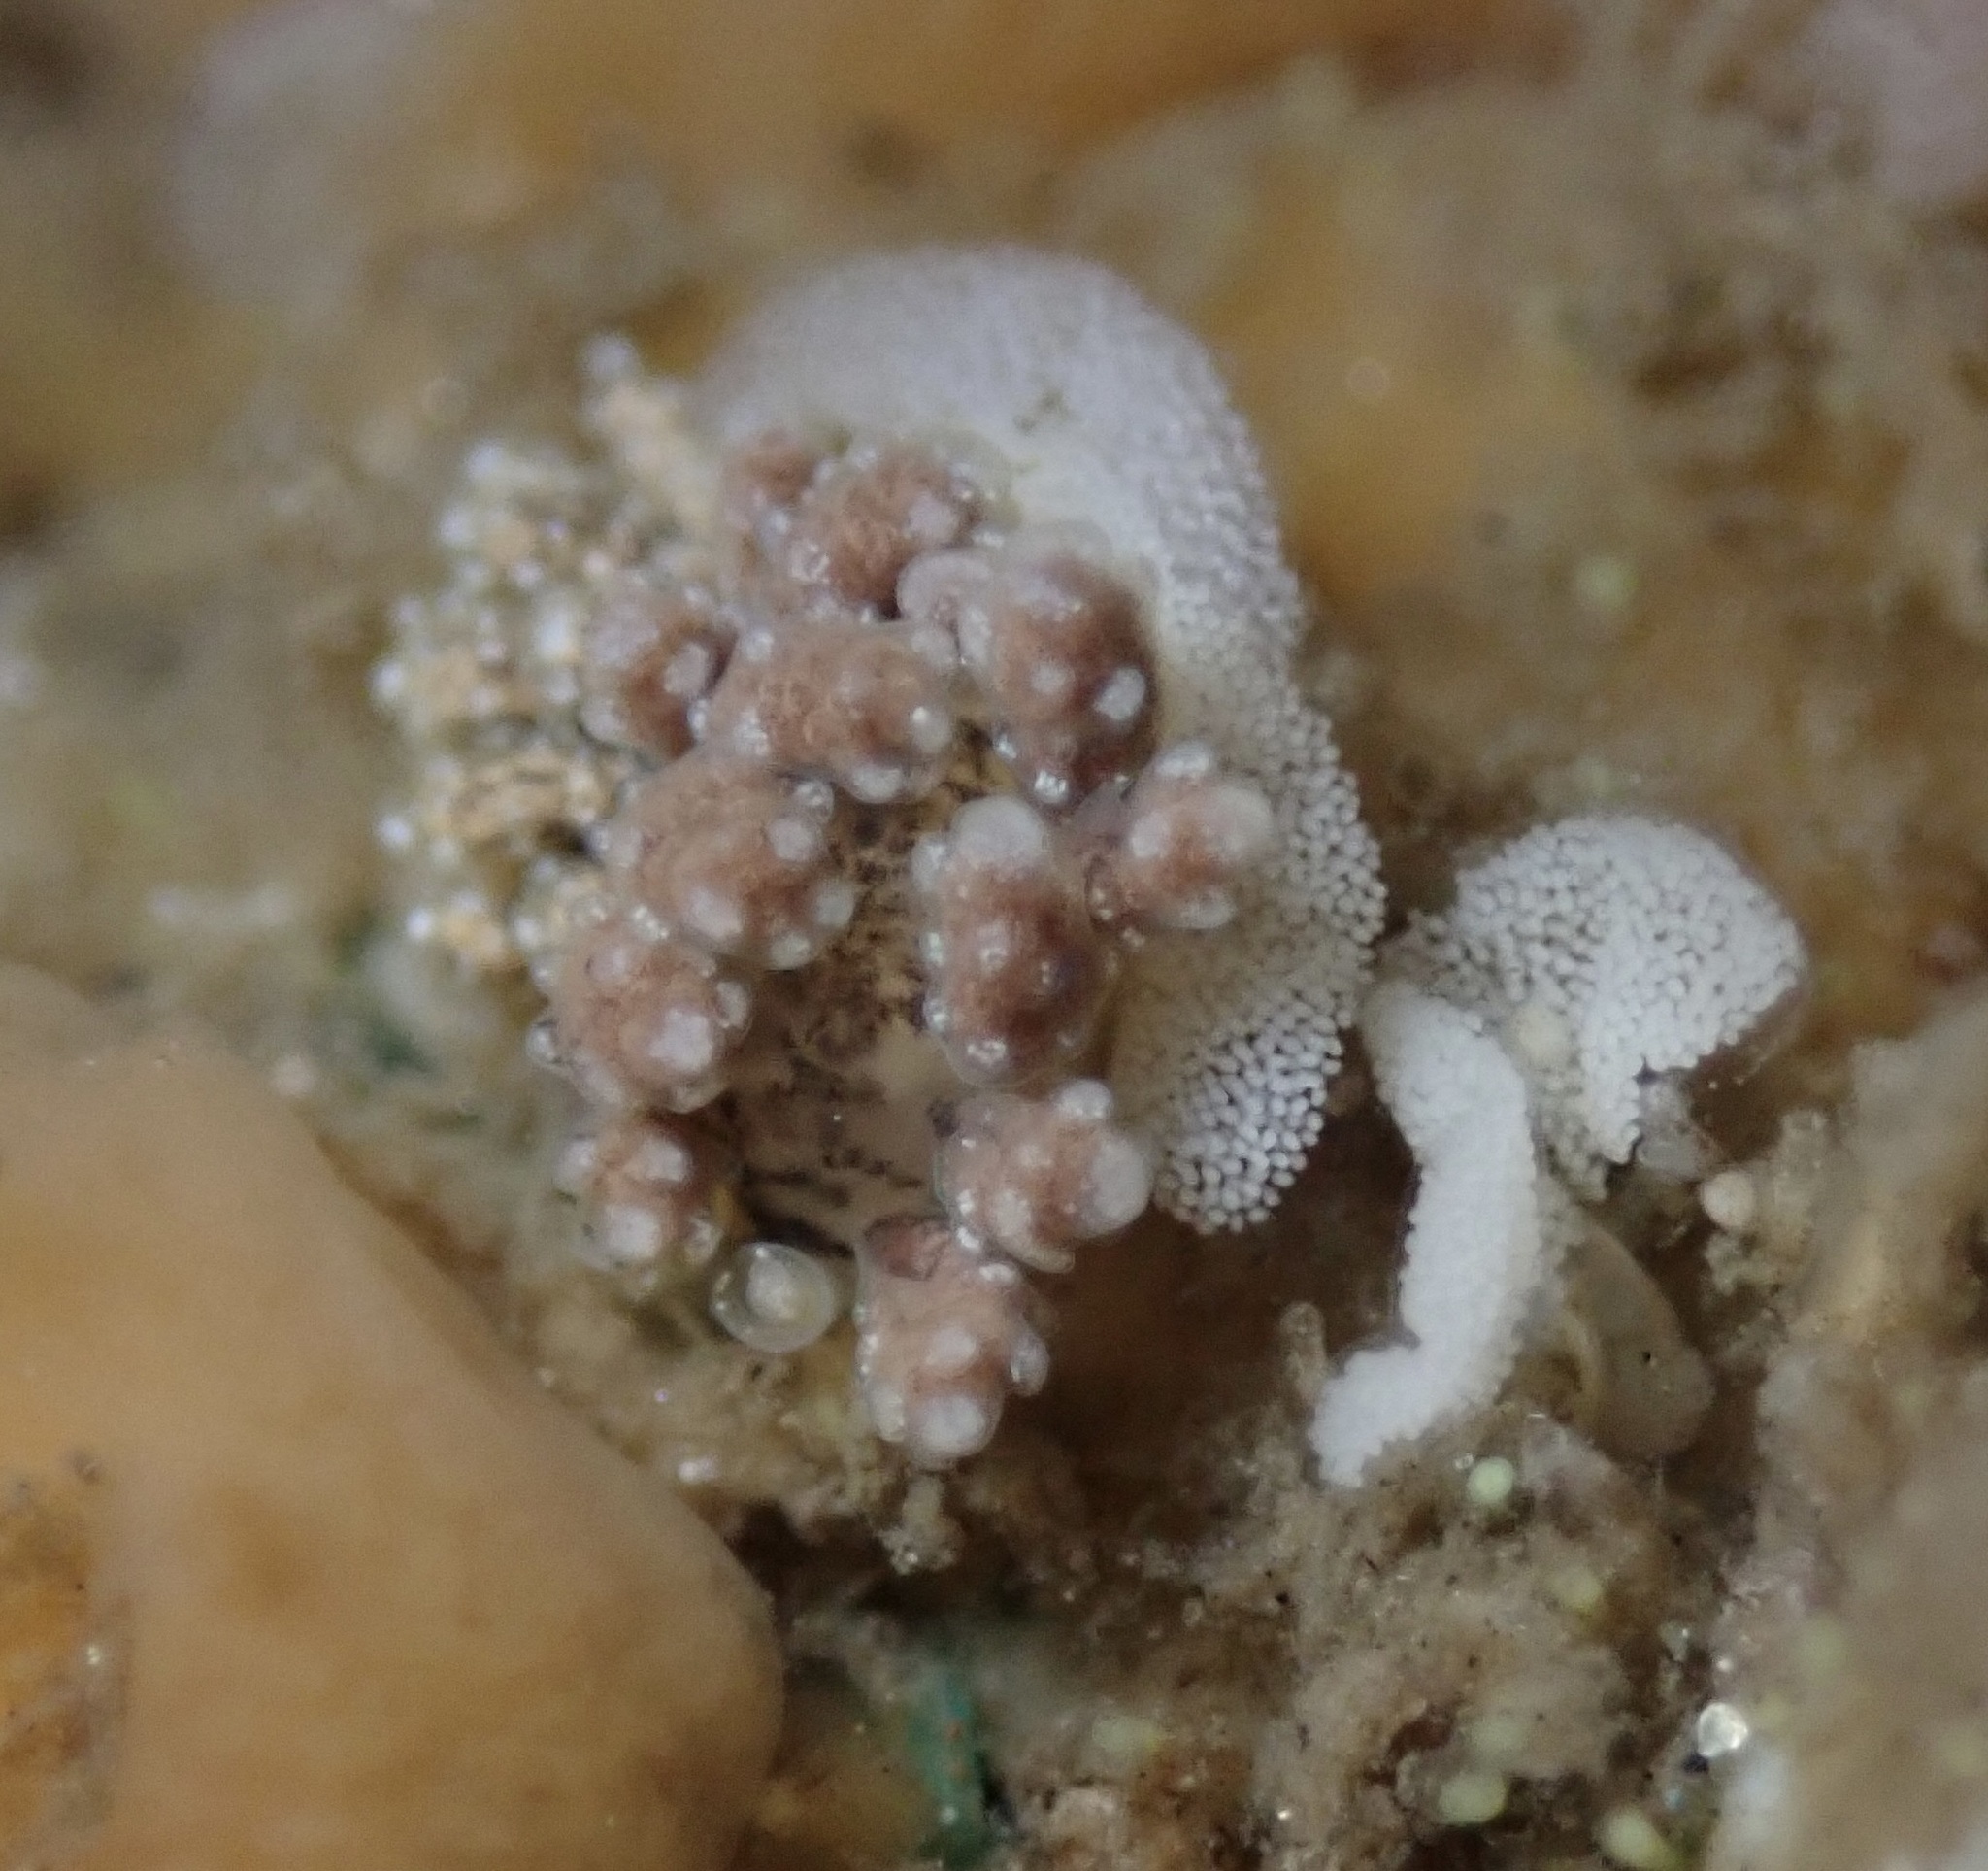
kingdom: Animalia
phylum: Mollusca
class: Gastropoda
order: Nudibranchia
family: Dotidae
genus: Doto
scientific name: Doto kya
